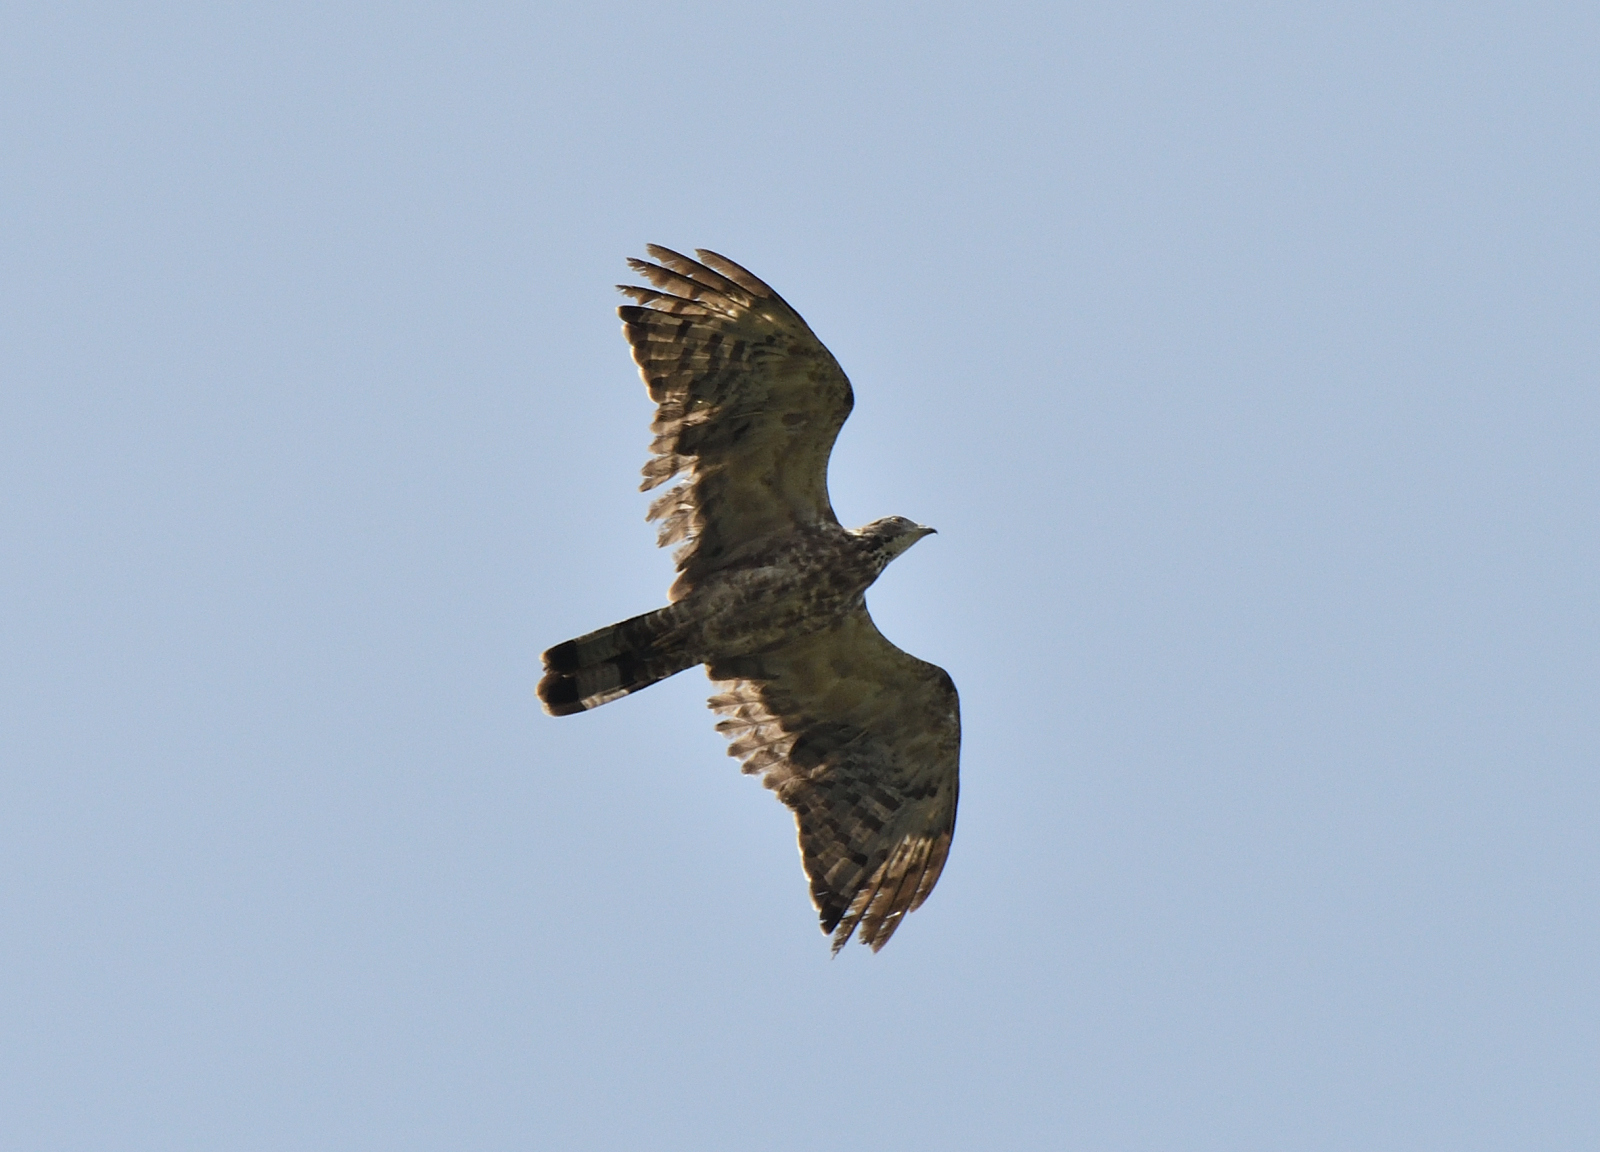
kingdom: Animalia
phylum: Chordata
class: Aves
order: Accipitriformes
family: Accipitridae
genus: Pernis
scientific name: Pernis ptilorhynchus
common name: Crested honey buzzard
